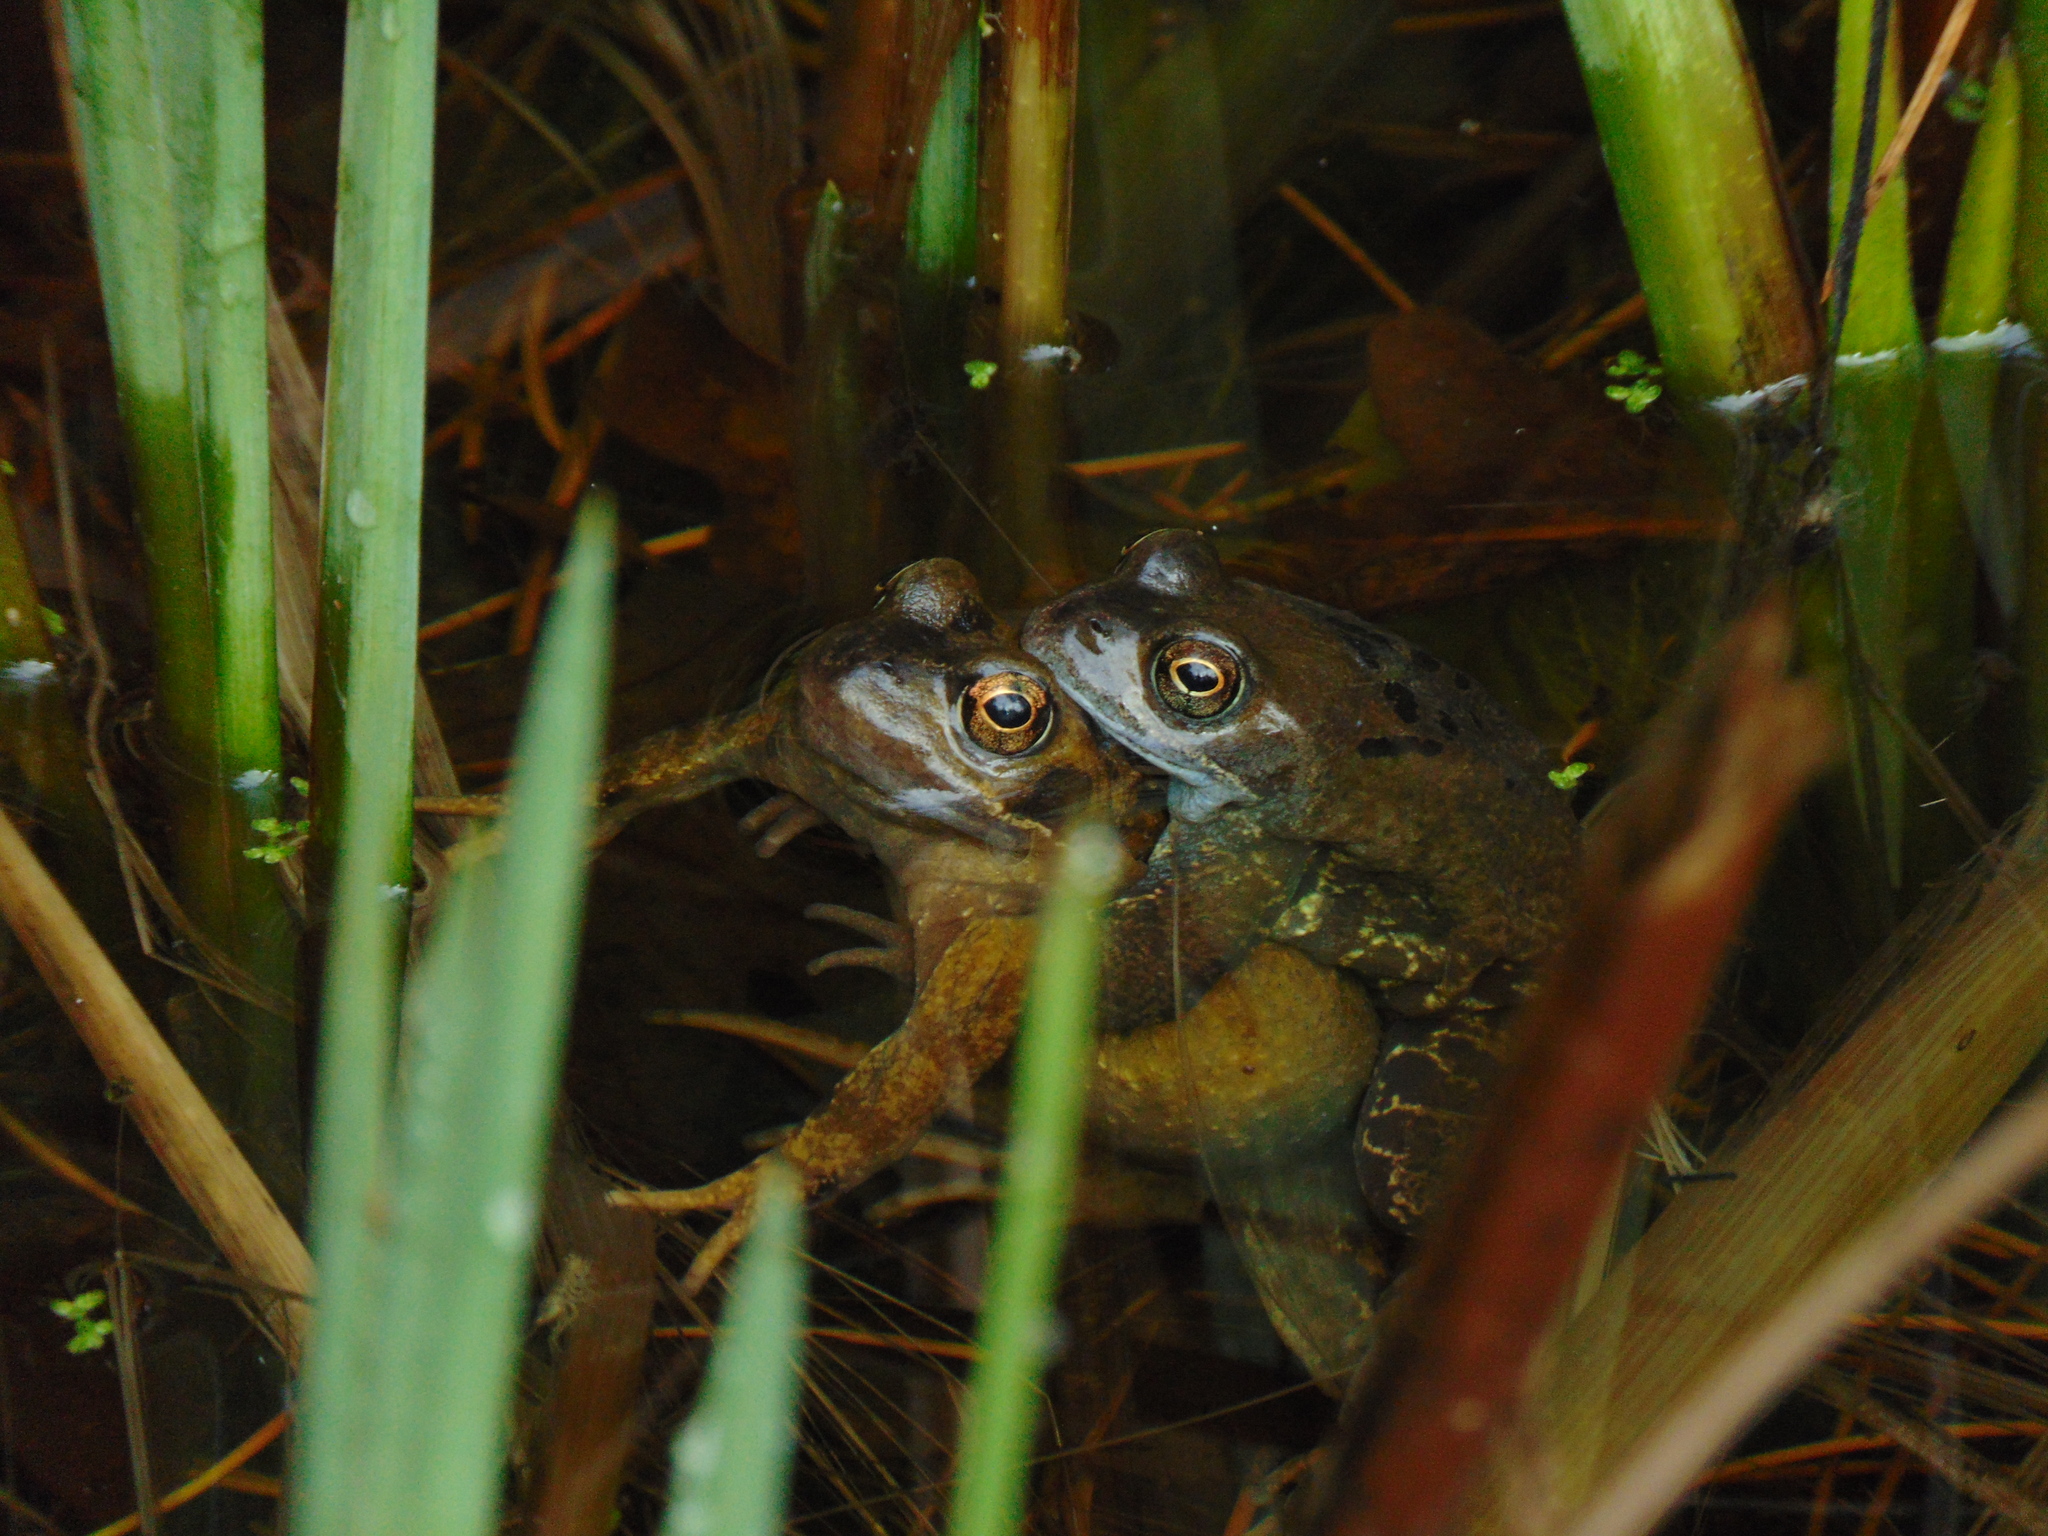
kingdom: Animalia
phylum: Chordata
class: Amphibia
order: Anura
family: Ranidae
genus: Rana
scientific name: Rana temporaria
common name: Common frog
